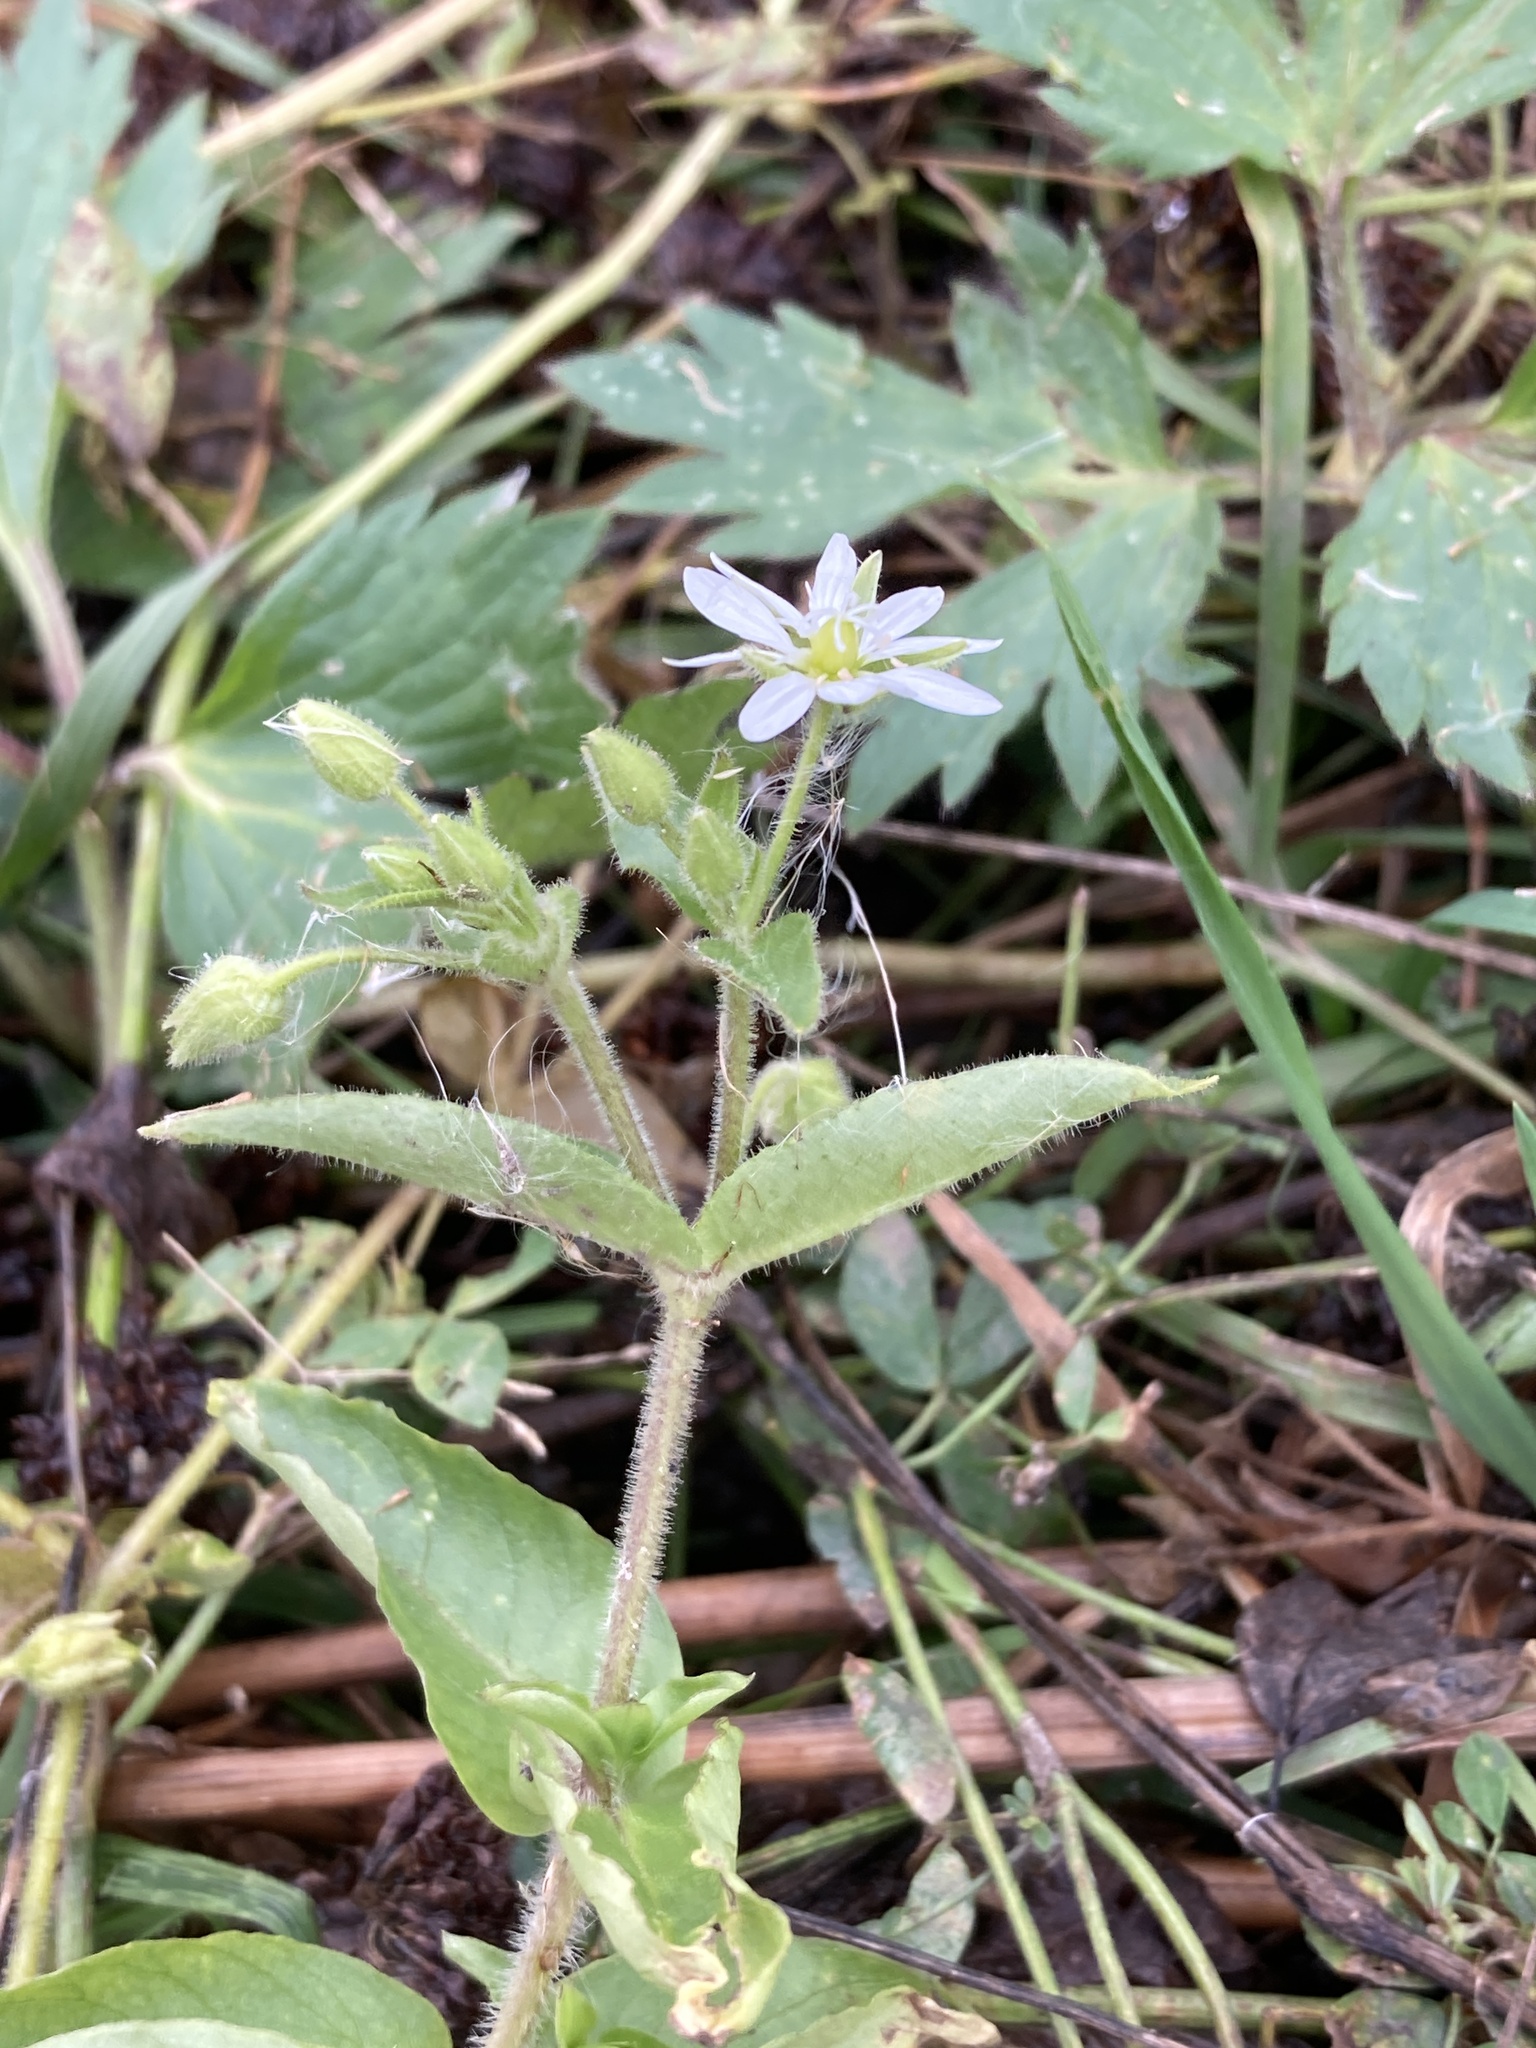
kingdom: Plantae
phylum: Tracheophyta
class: Magnoliopsida
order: Caryophyllales
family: Caryophyllaceae
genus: Stellaria
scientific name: Stellaria aquatica
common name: Water chickweed
